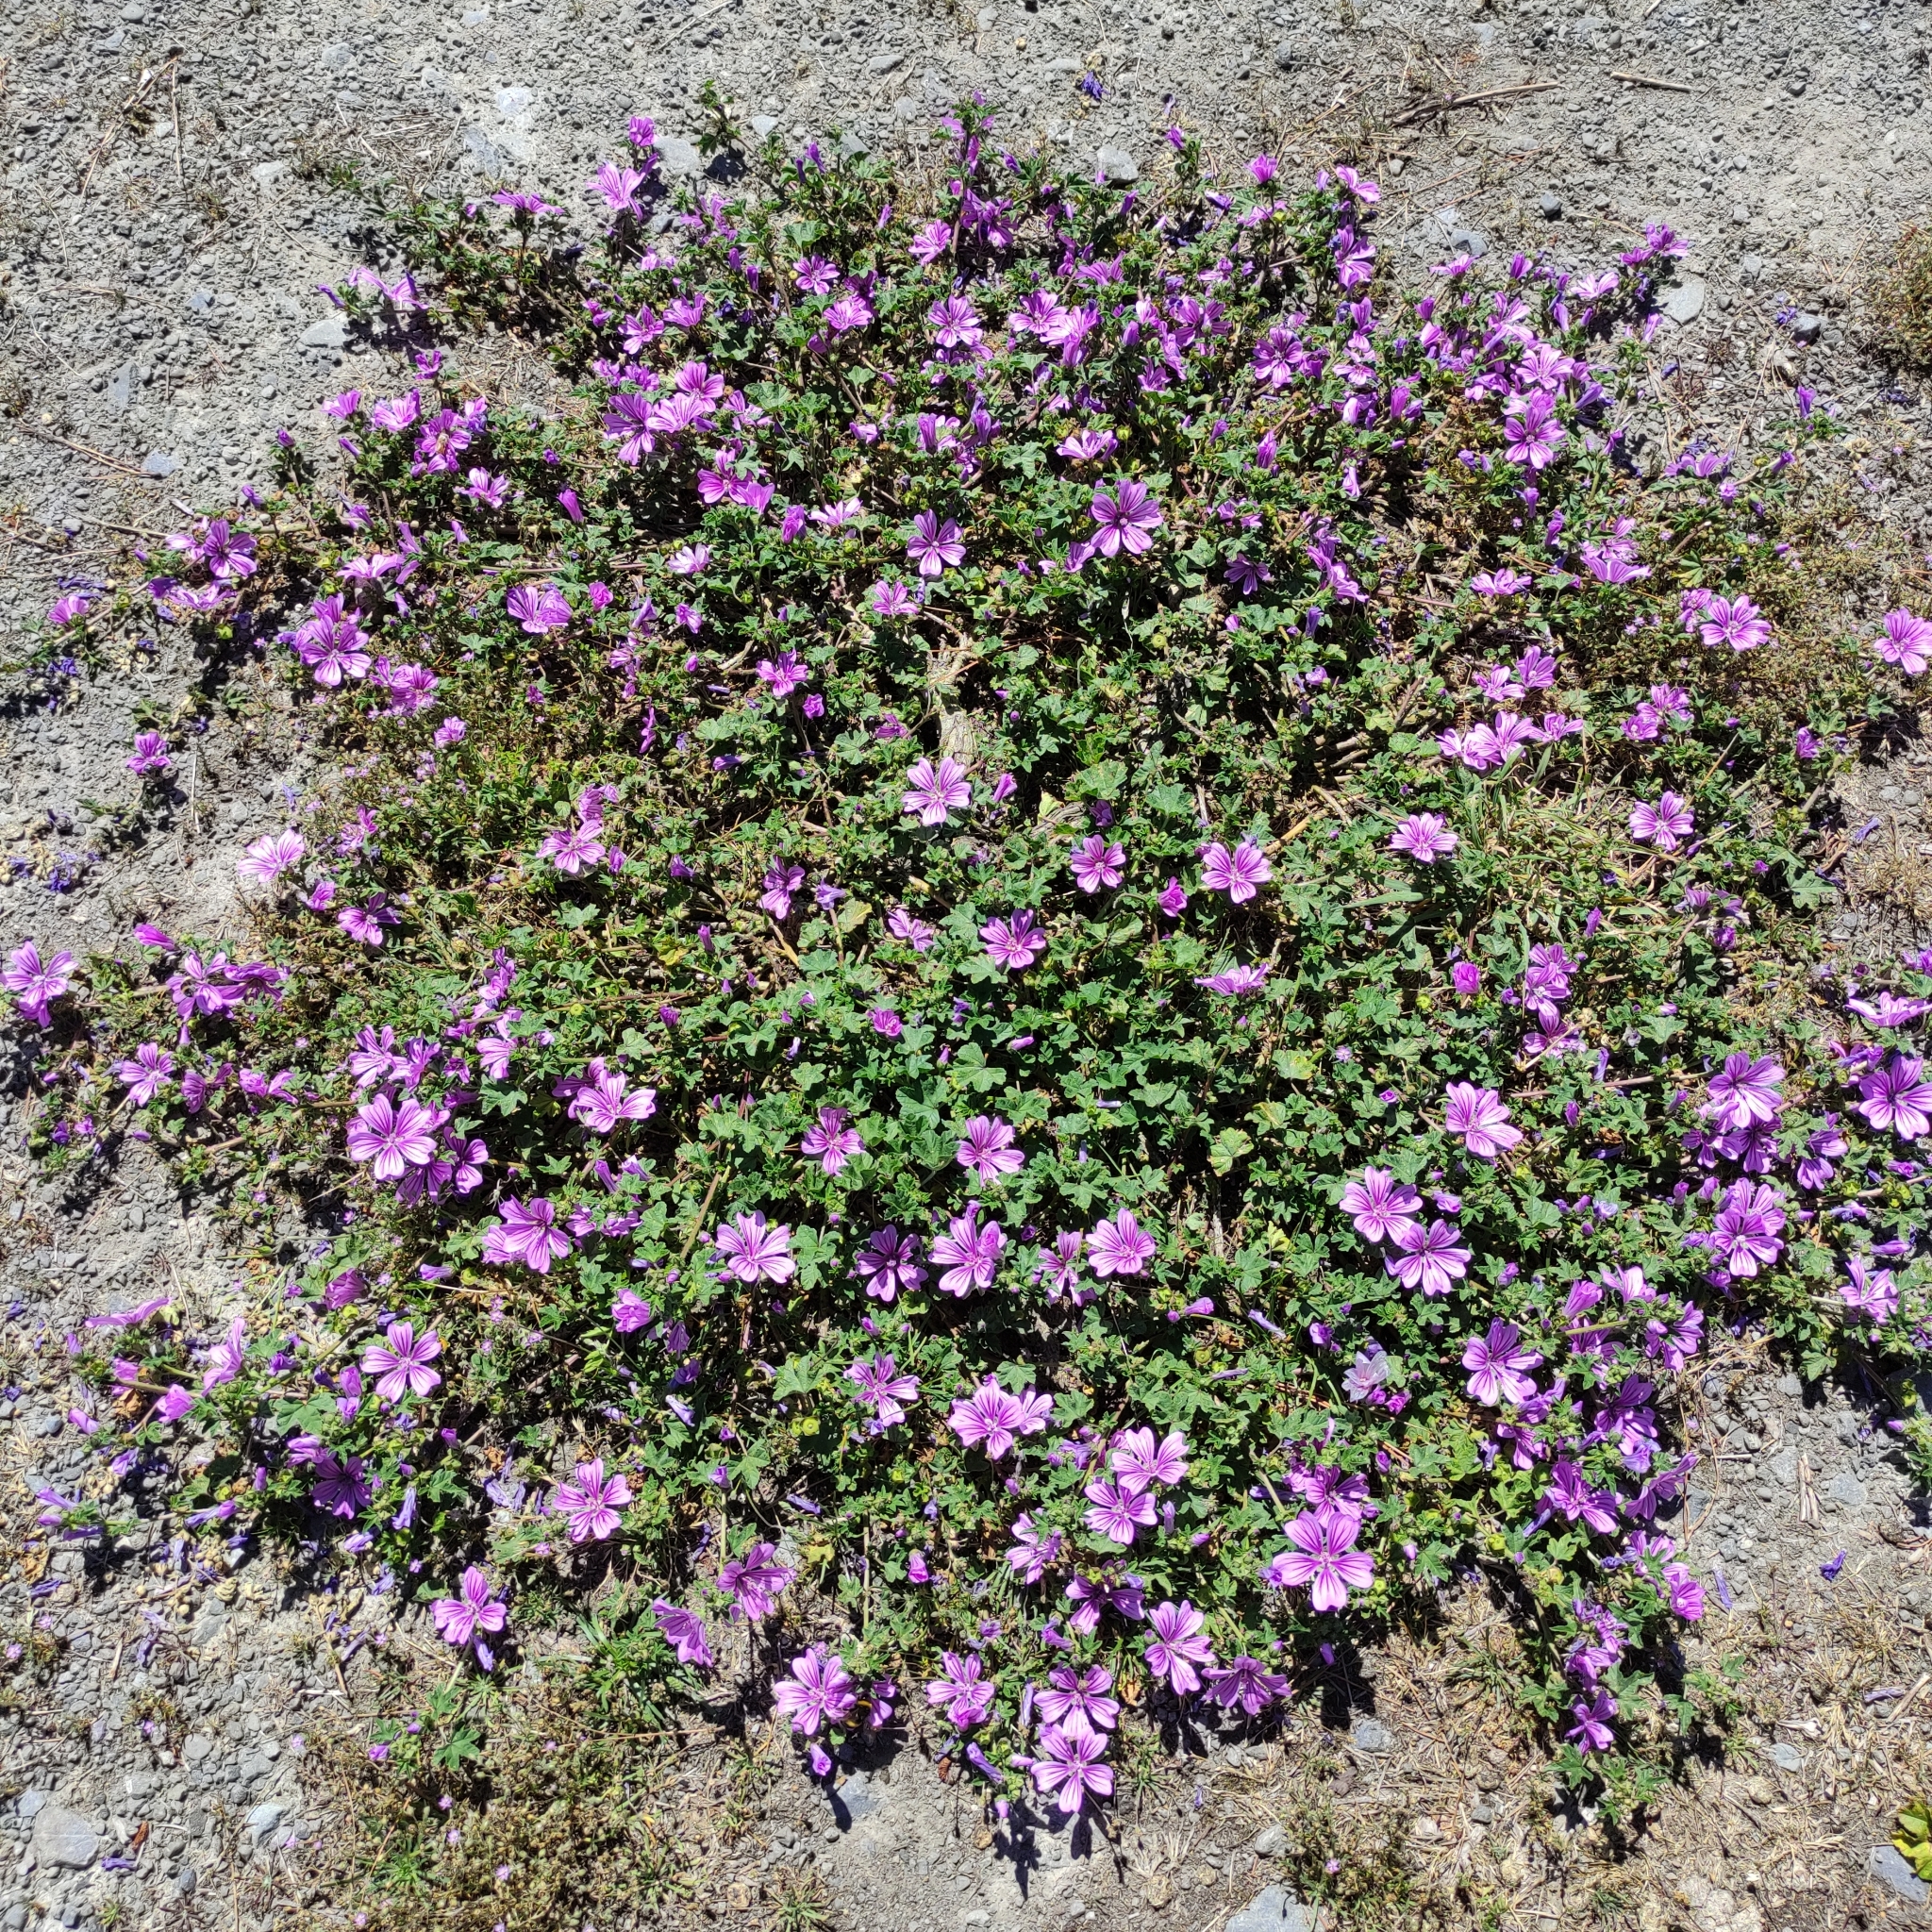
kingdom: Plantae
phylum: Tracheophyta
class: Magnoliopsida
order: Malvales
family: Malvaceae
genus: Malva
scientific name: Malva sylvestris
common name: Common mallow
